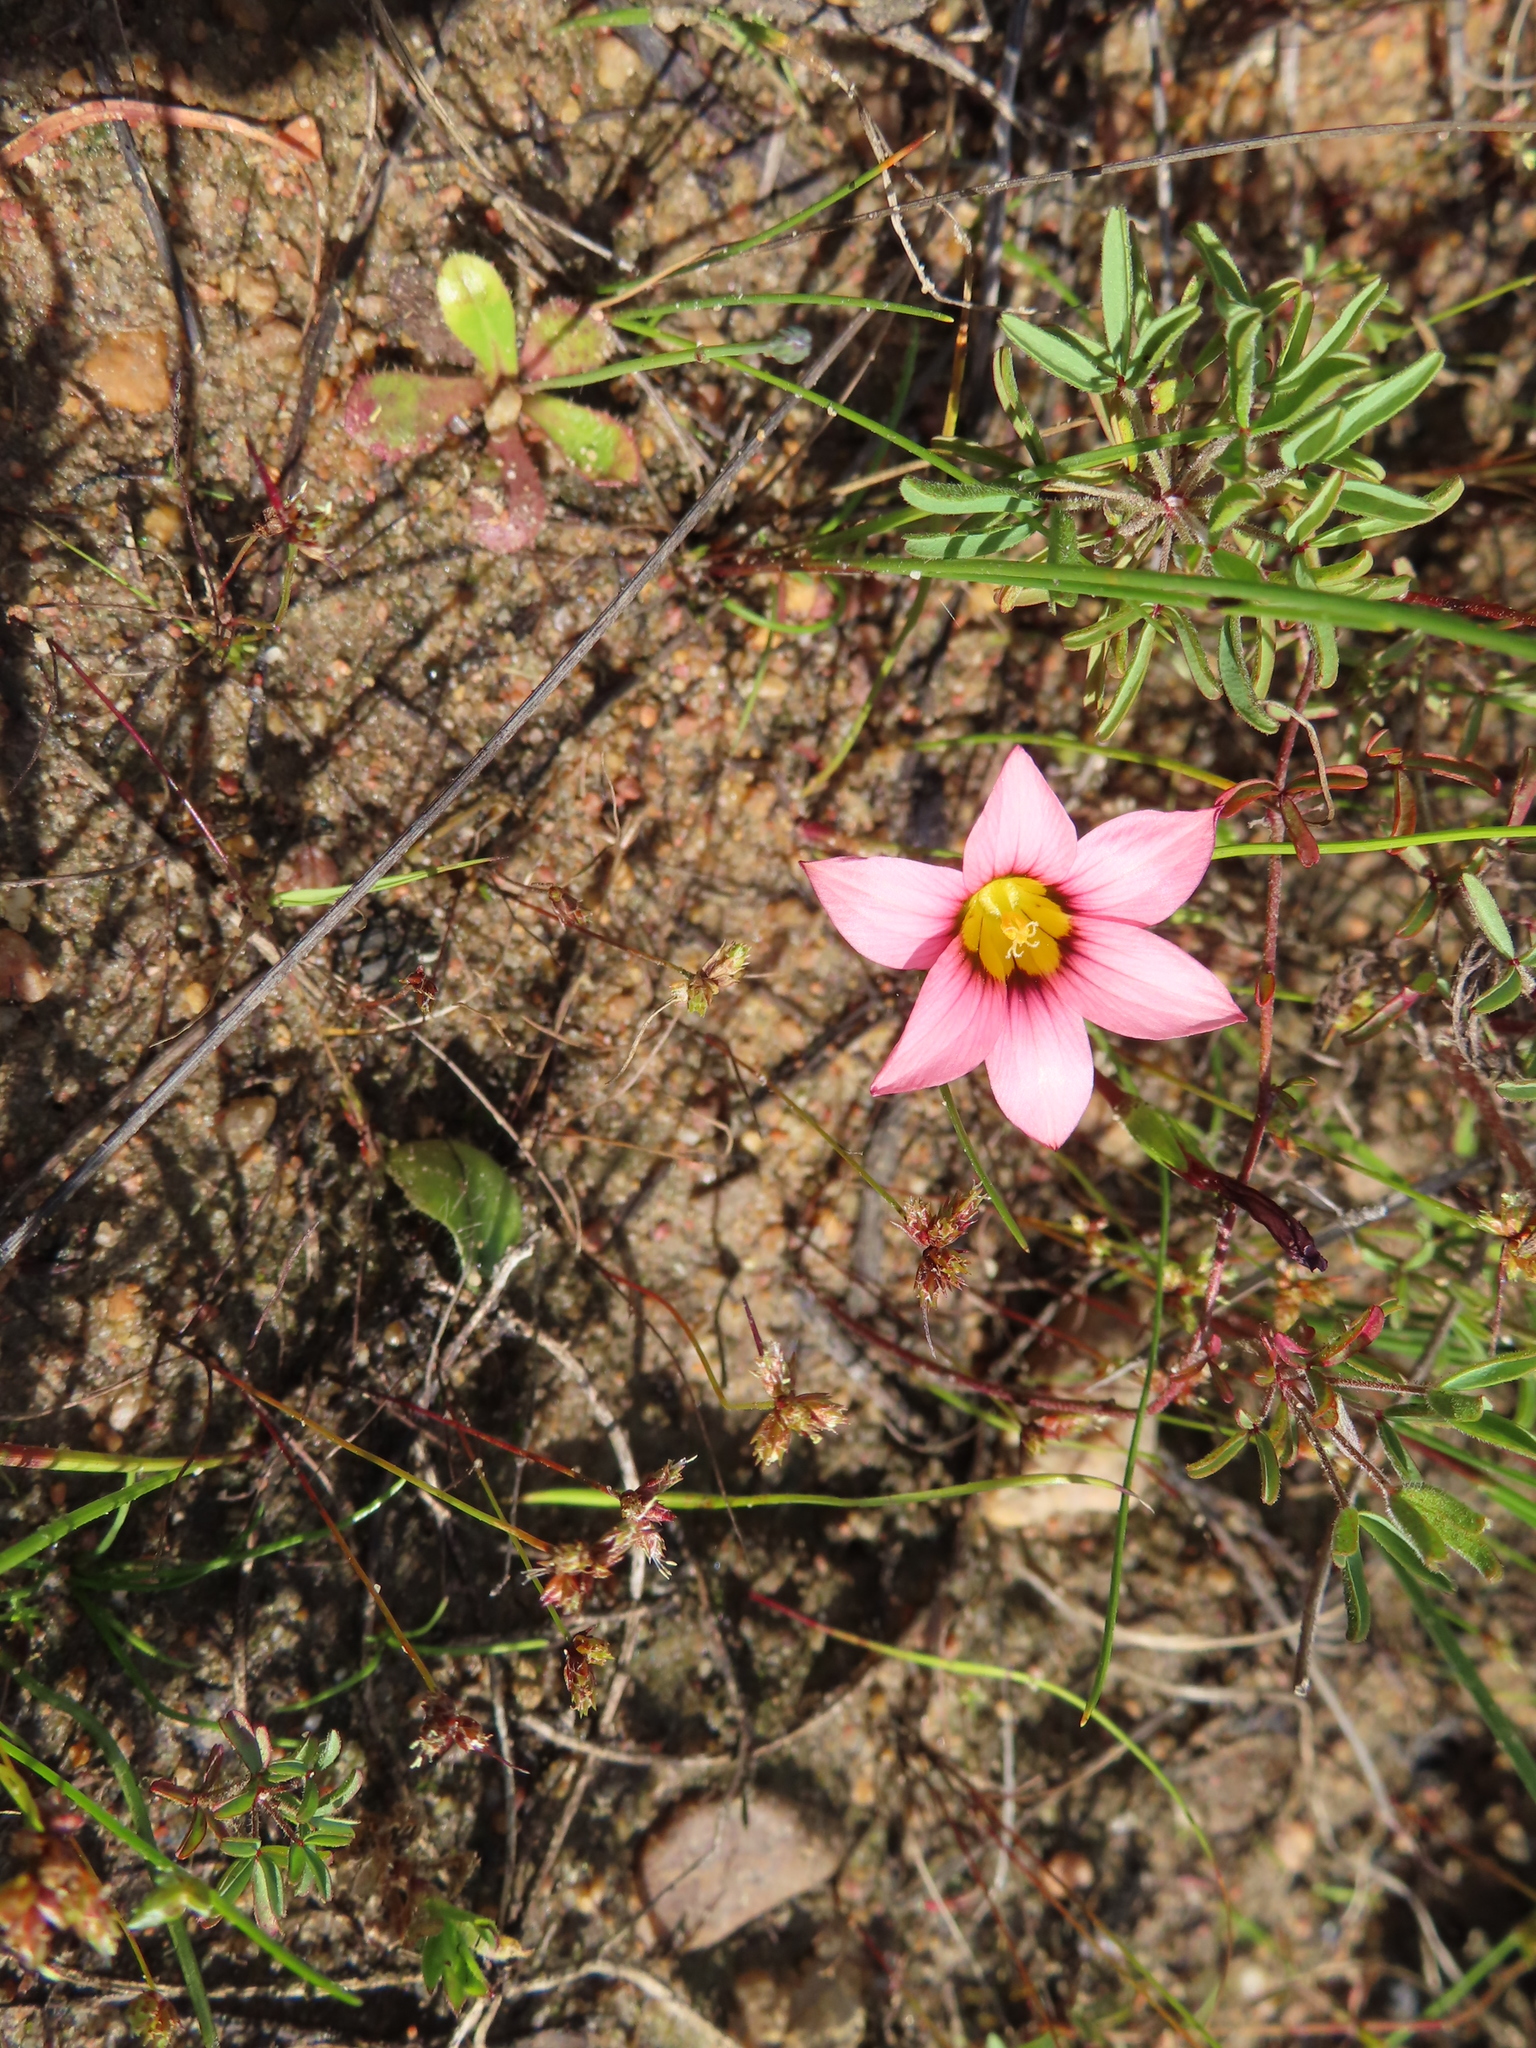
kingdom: Plantae
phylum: Tracheophyta
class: Liliopsida
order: Asparagales
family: Iridaceae
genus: Romulea
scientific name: Romulea hirsuta
